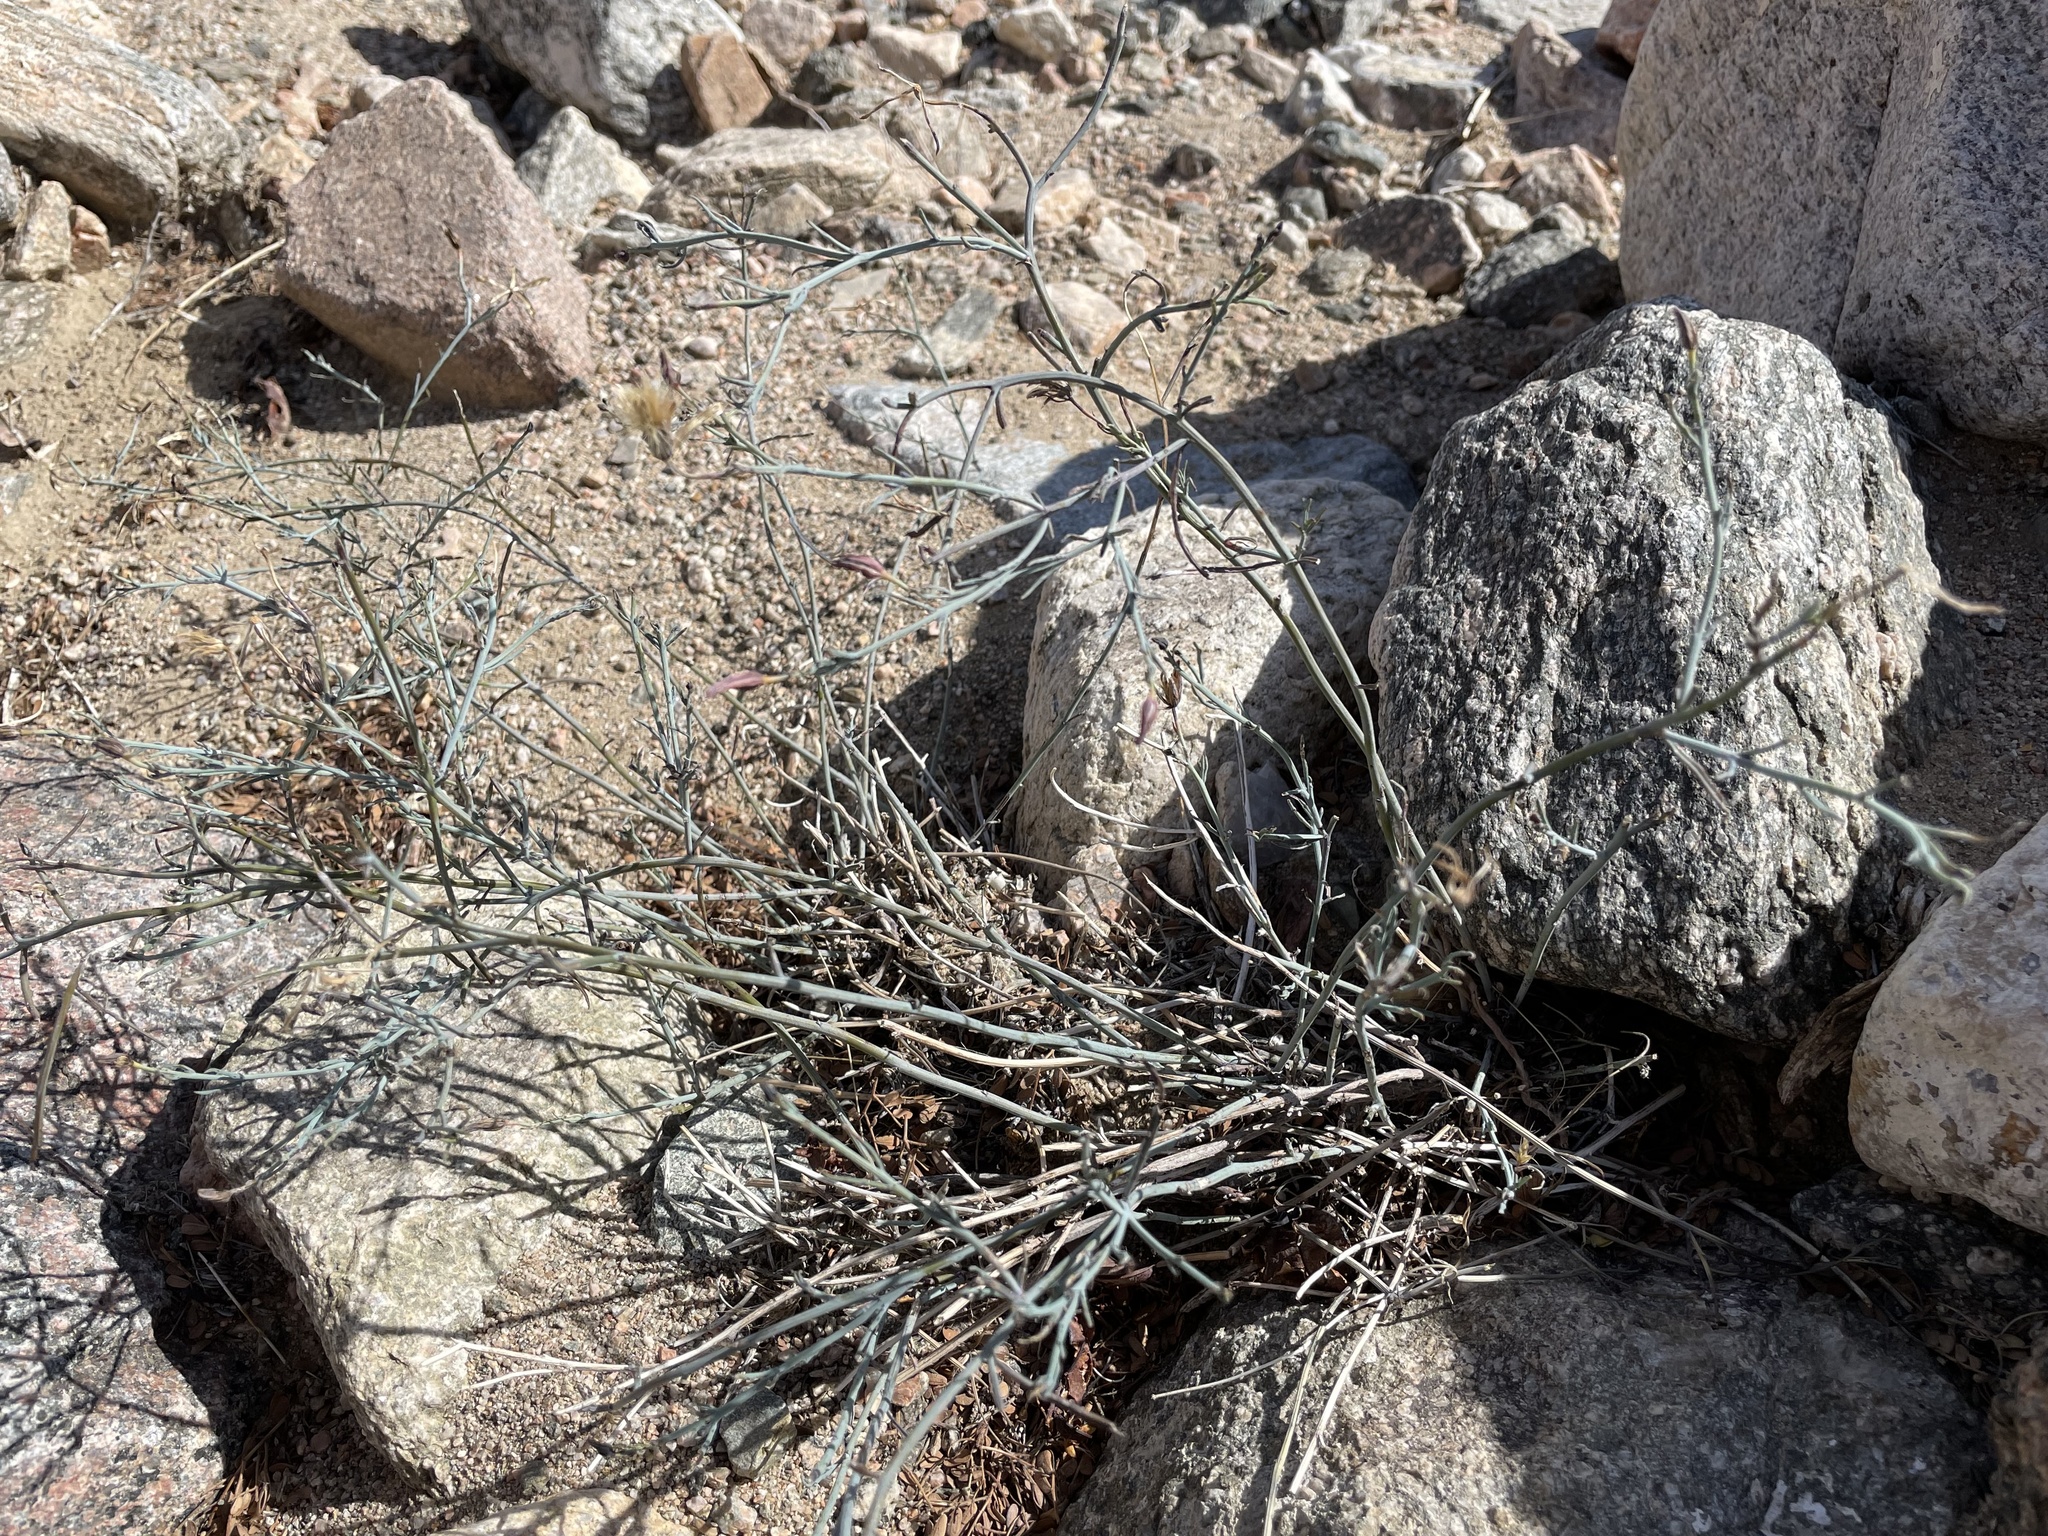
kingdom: Plantae
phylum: Tracheophyta
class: Magnoliopsida
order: Asterales
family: Asteraceae
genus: Porophyllum
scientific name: Porophyllum gracile
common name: Odora
